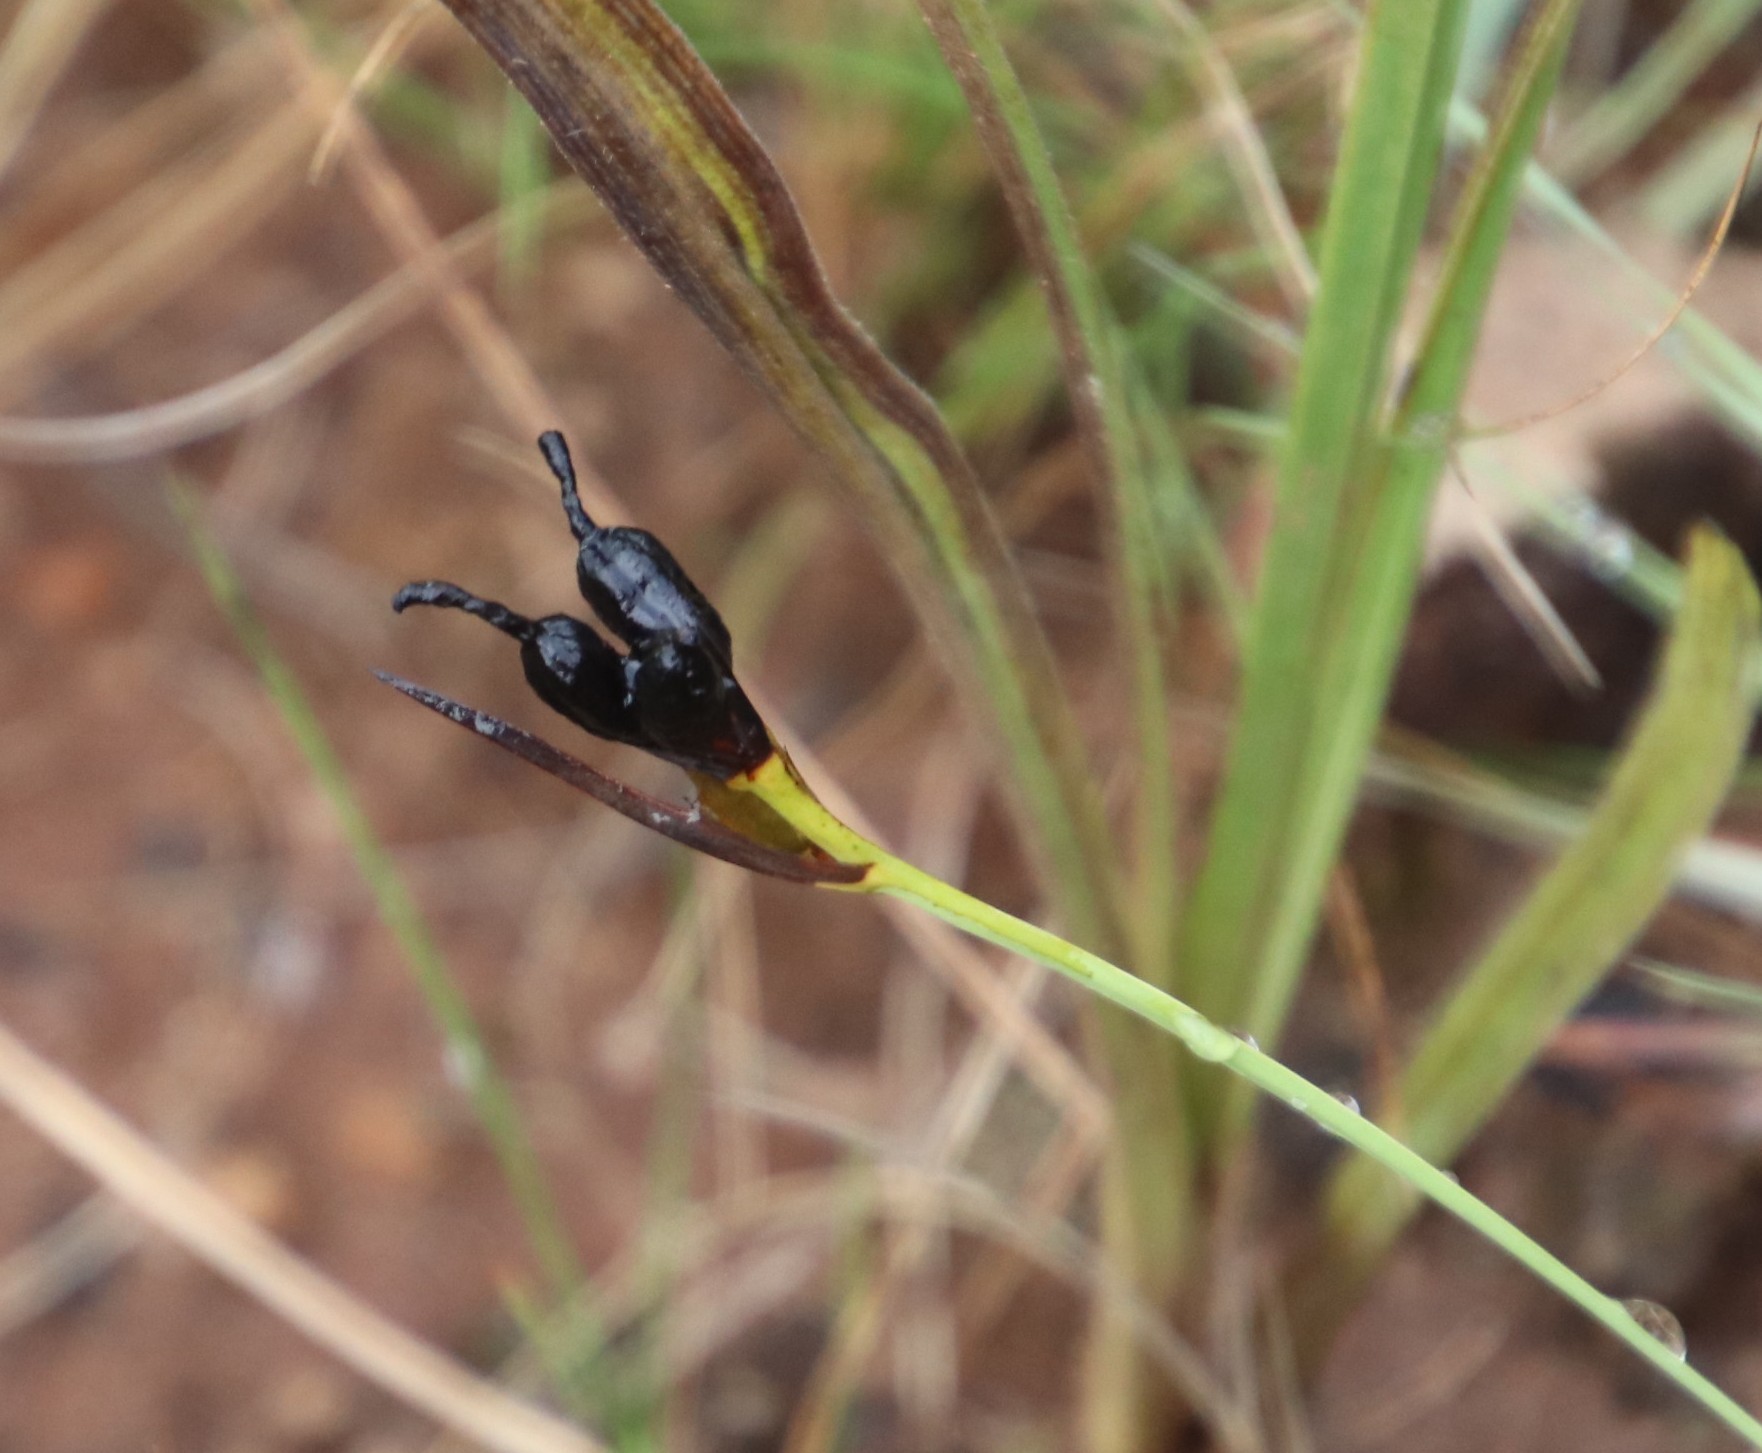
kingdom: Plantae
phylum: Tracheophyta
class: Liliopsida
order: Asparagales
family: Iridaceae
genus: Aristea
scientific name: Aristea abyssinica
